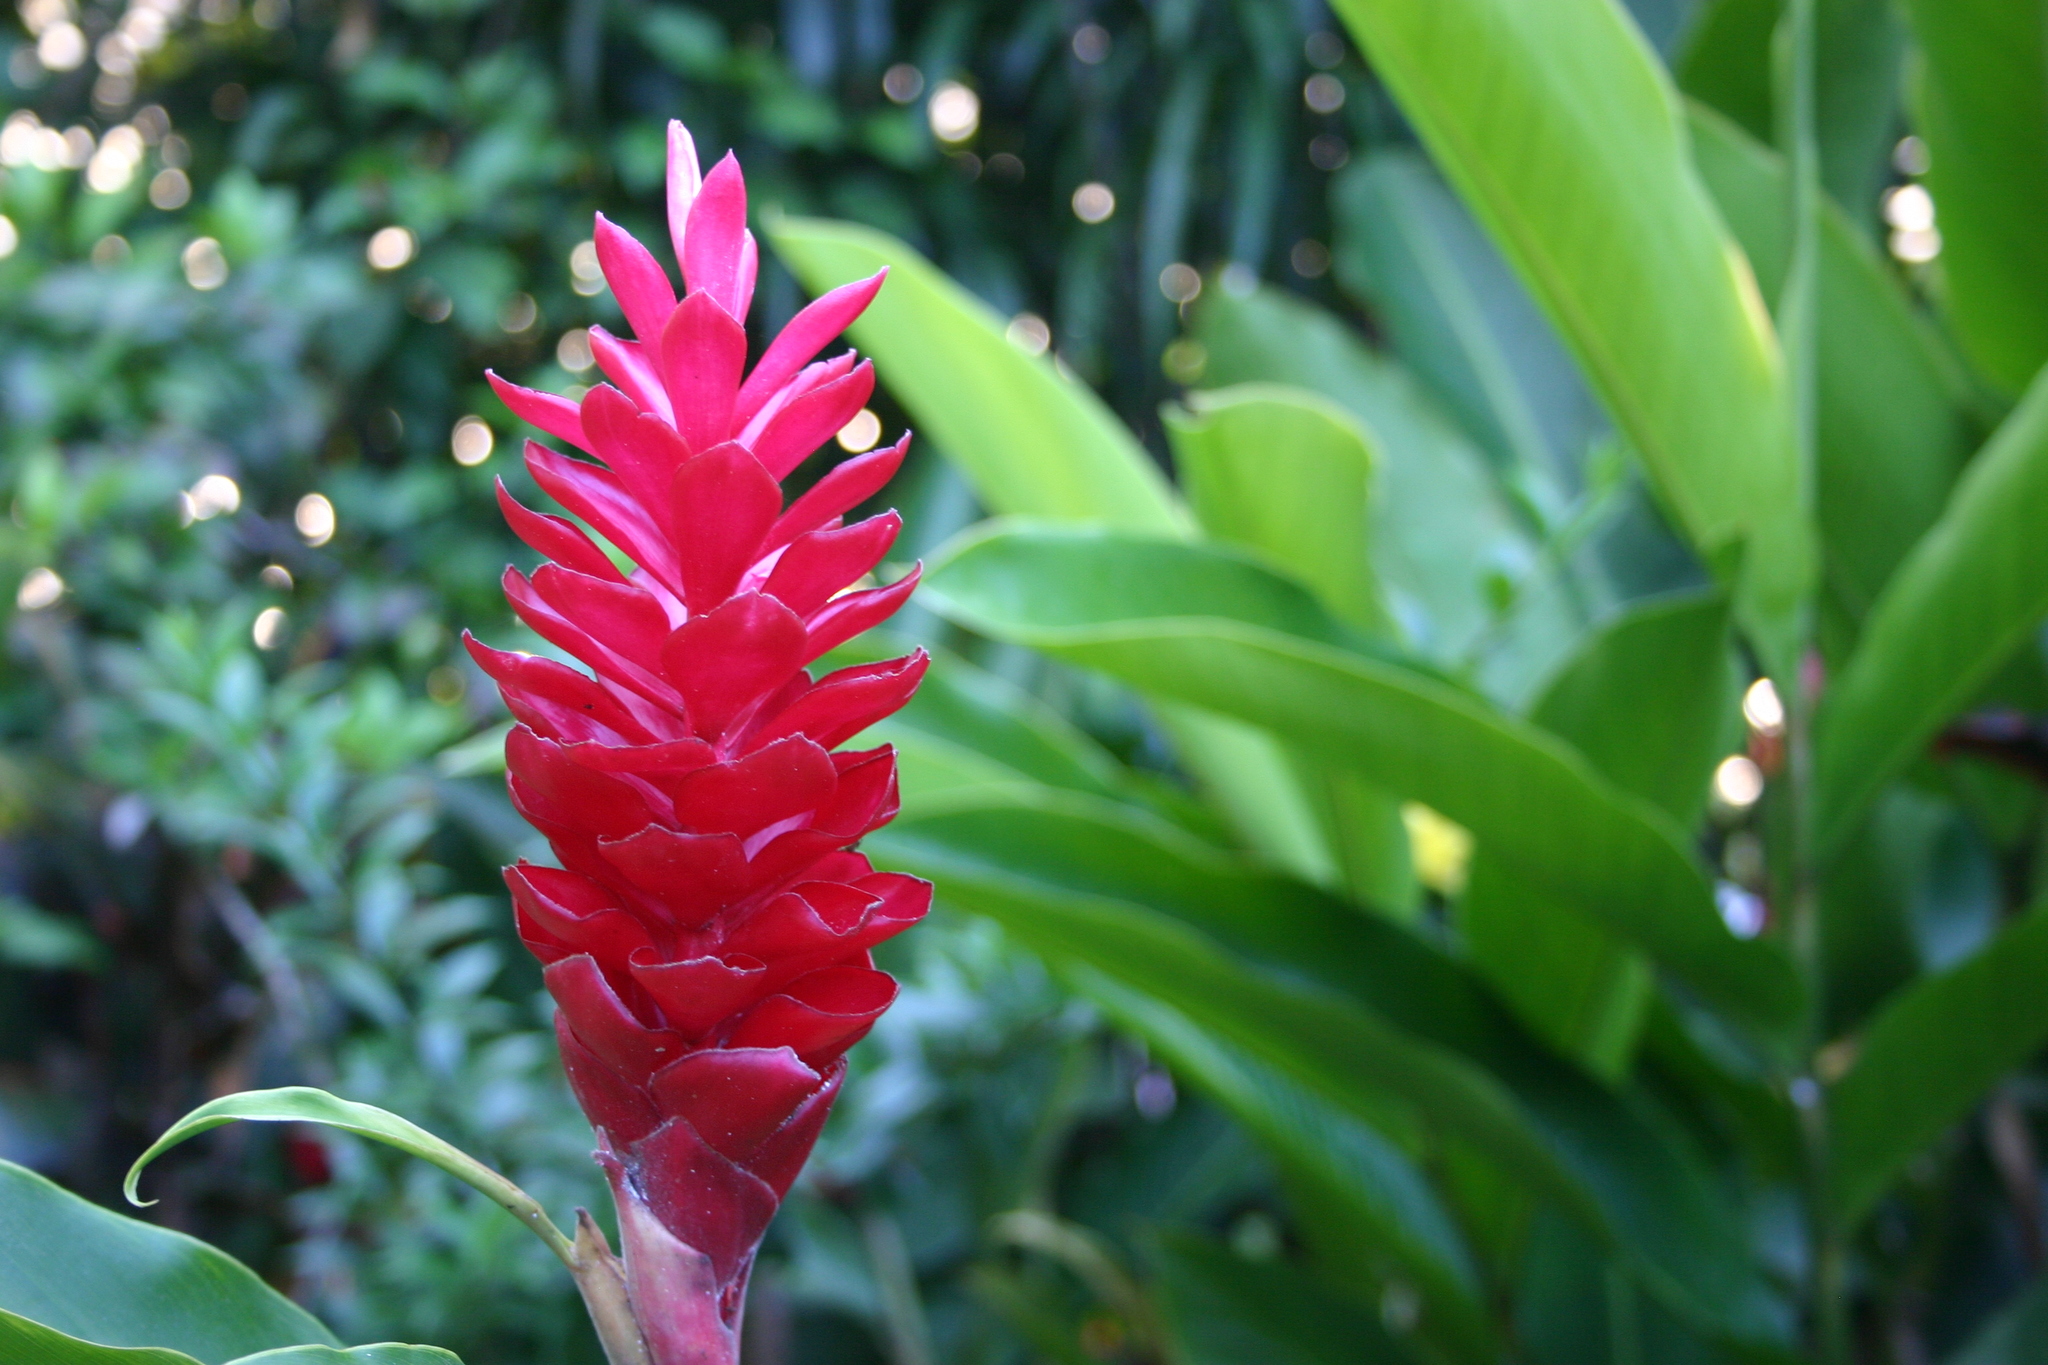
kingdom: Plantae
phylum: Tracheophyta
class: Liliopsida
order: Zingiberales
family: Zingiberaceae
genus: Alpinia
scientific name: Alpinia purpurata
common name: Red ginger
